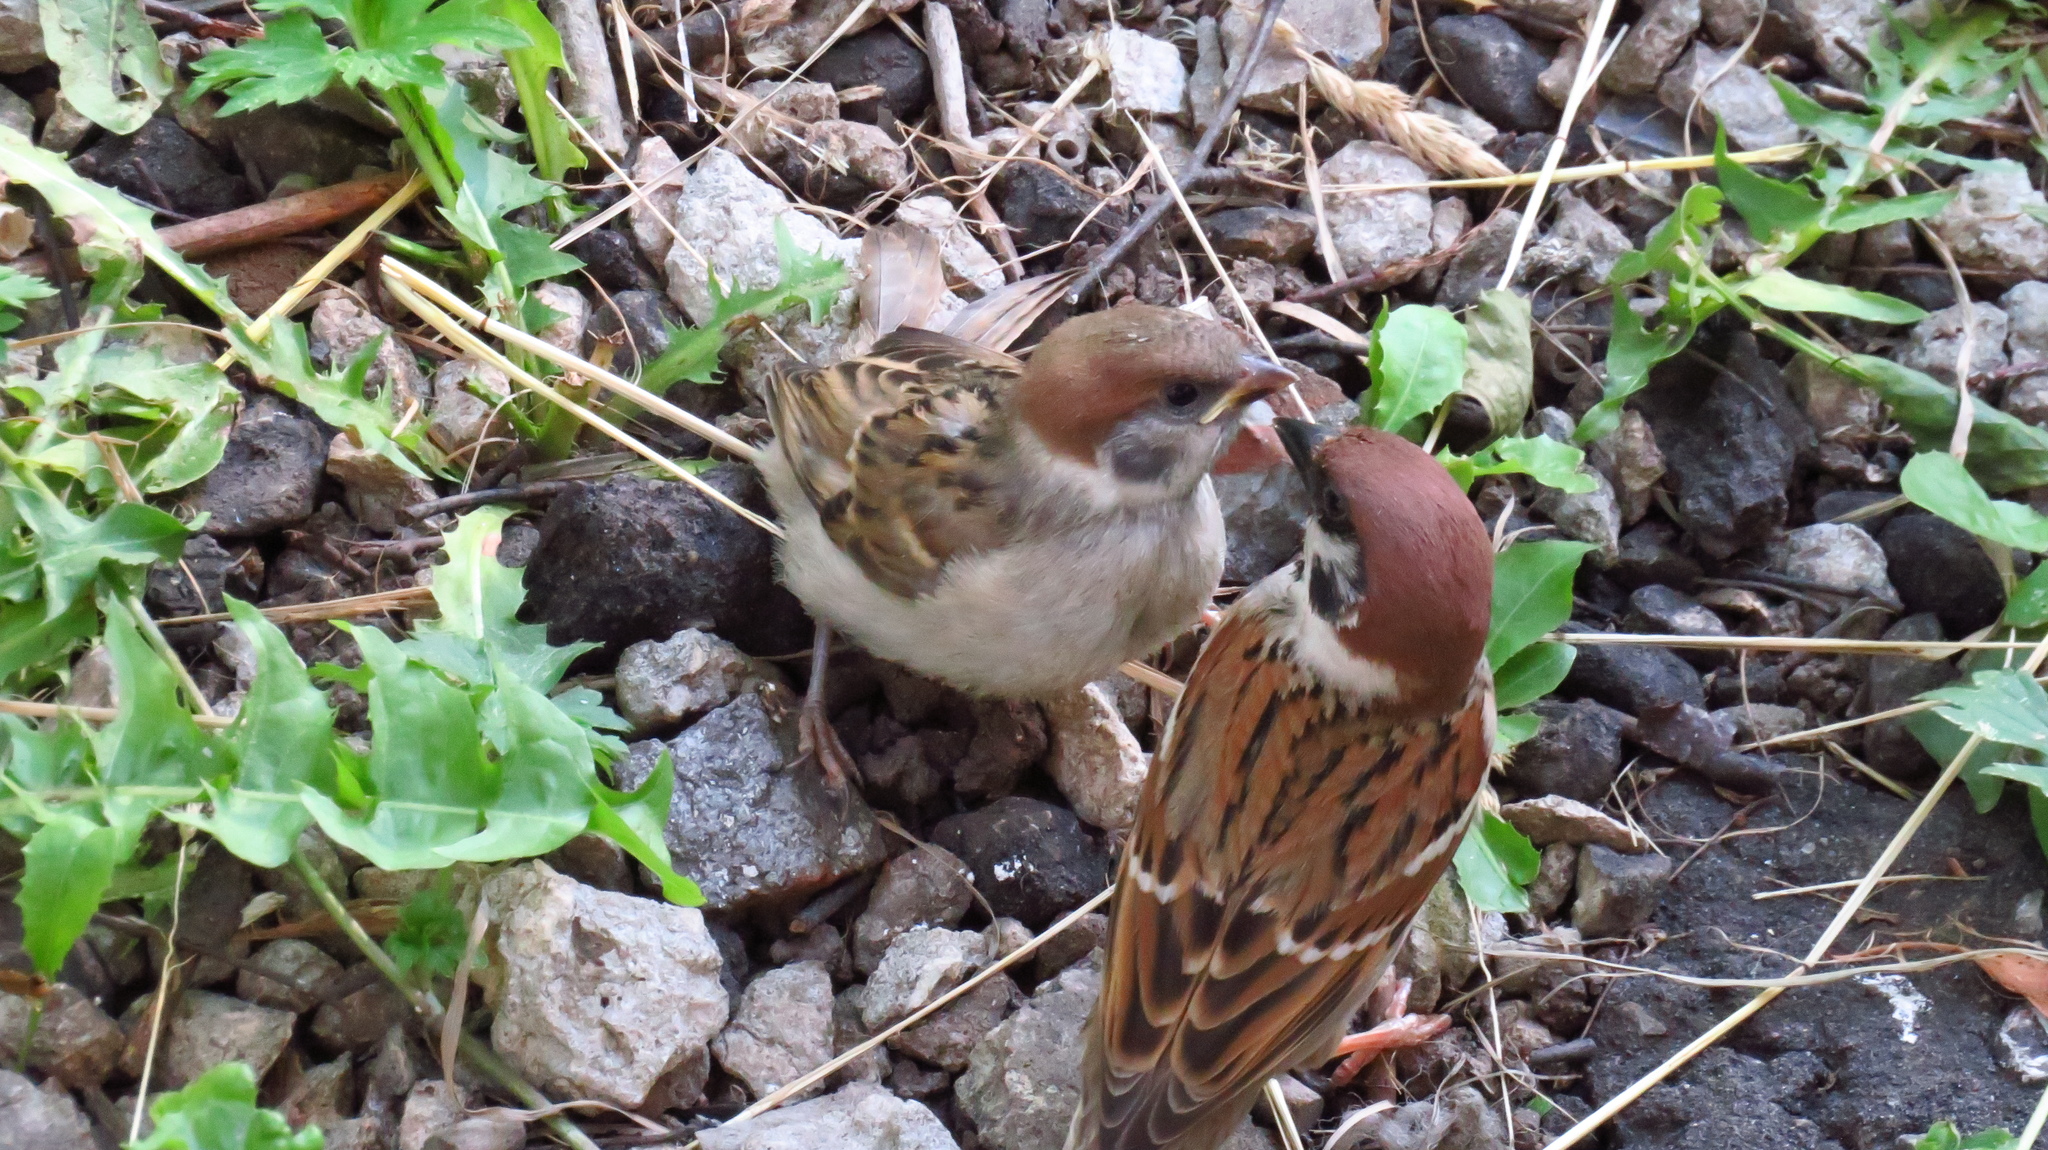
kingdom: Animalia
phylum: Chordata
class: Aves
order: Passeriformes
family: Passeridae
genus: Passer
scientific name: Passer montanus
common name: Eurasian tree sparrow
